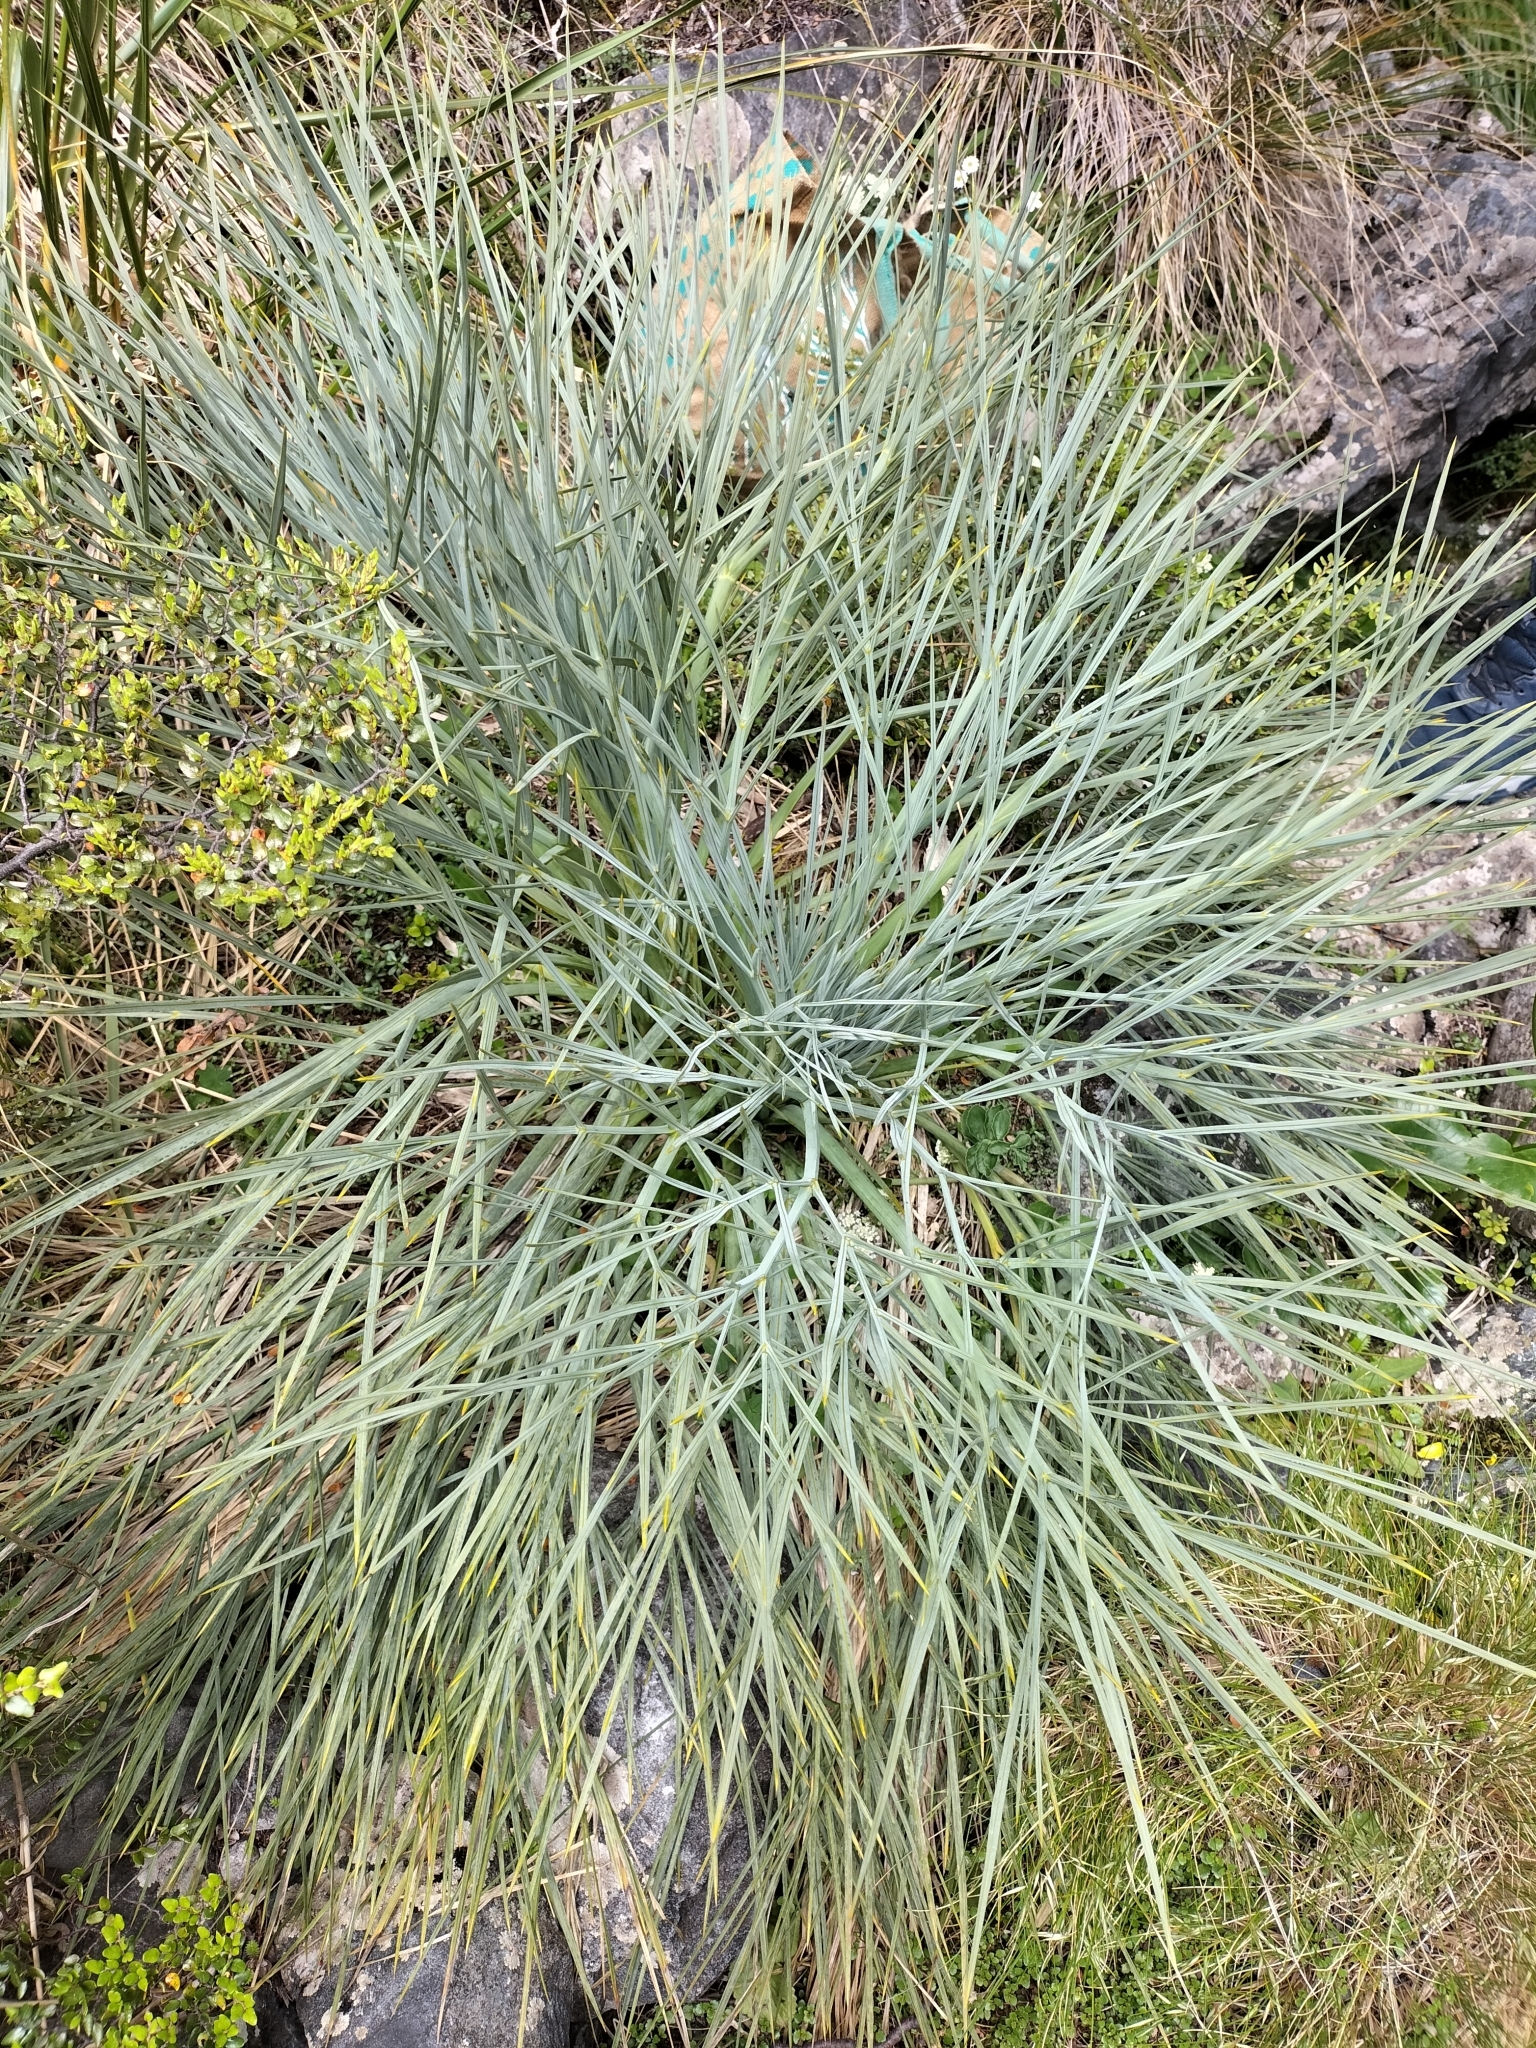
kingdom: Plantae
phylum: Tracheophyta
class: Magnoliopsida
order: Apiales
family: Apiaceae
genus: Aciphylla
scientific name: Aciphylla glaucescens
